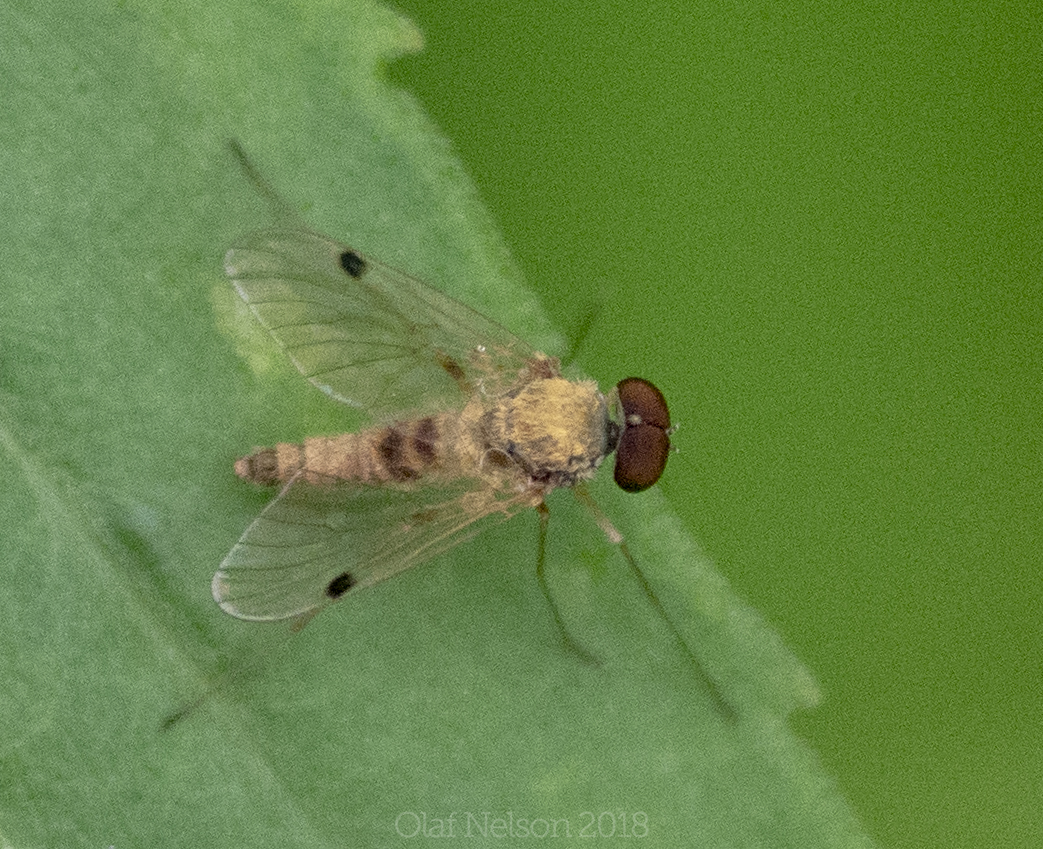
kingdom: Animalia
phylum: Arthropoda
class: Insecta
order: Diptera
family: Rhagionidae
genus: Chrysopilus
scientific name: Chrysopilus modestus
